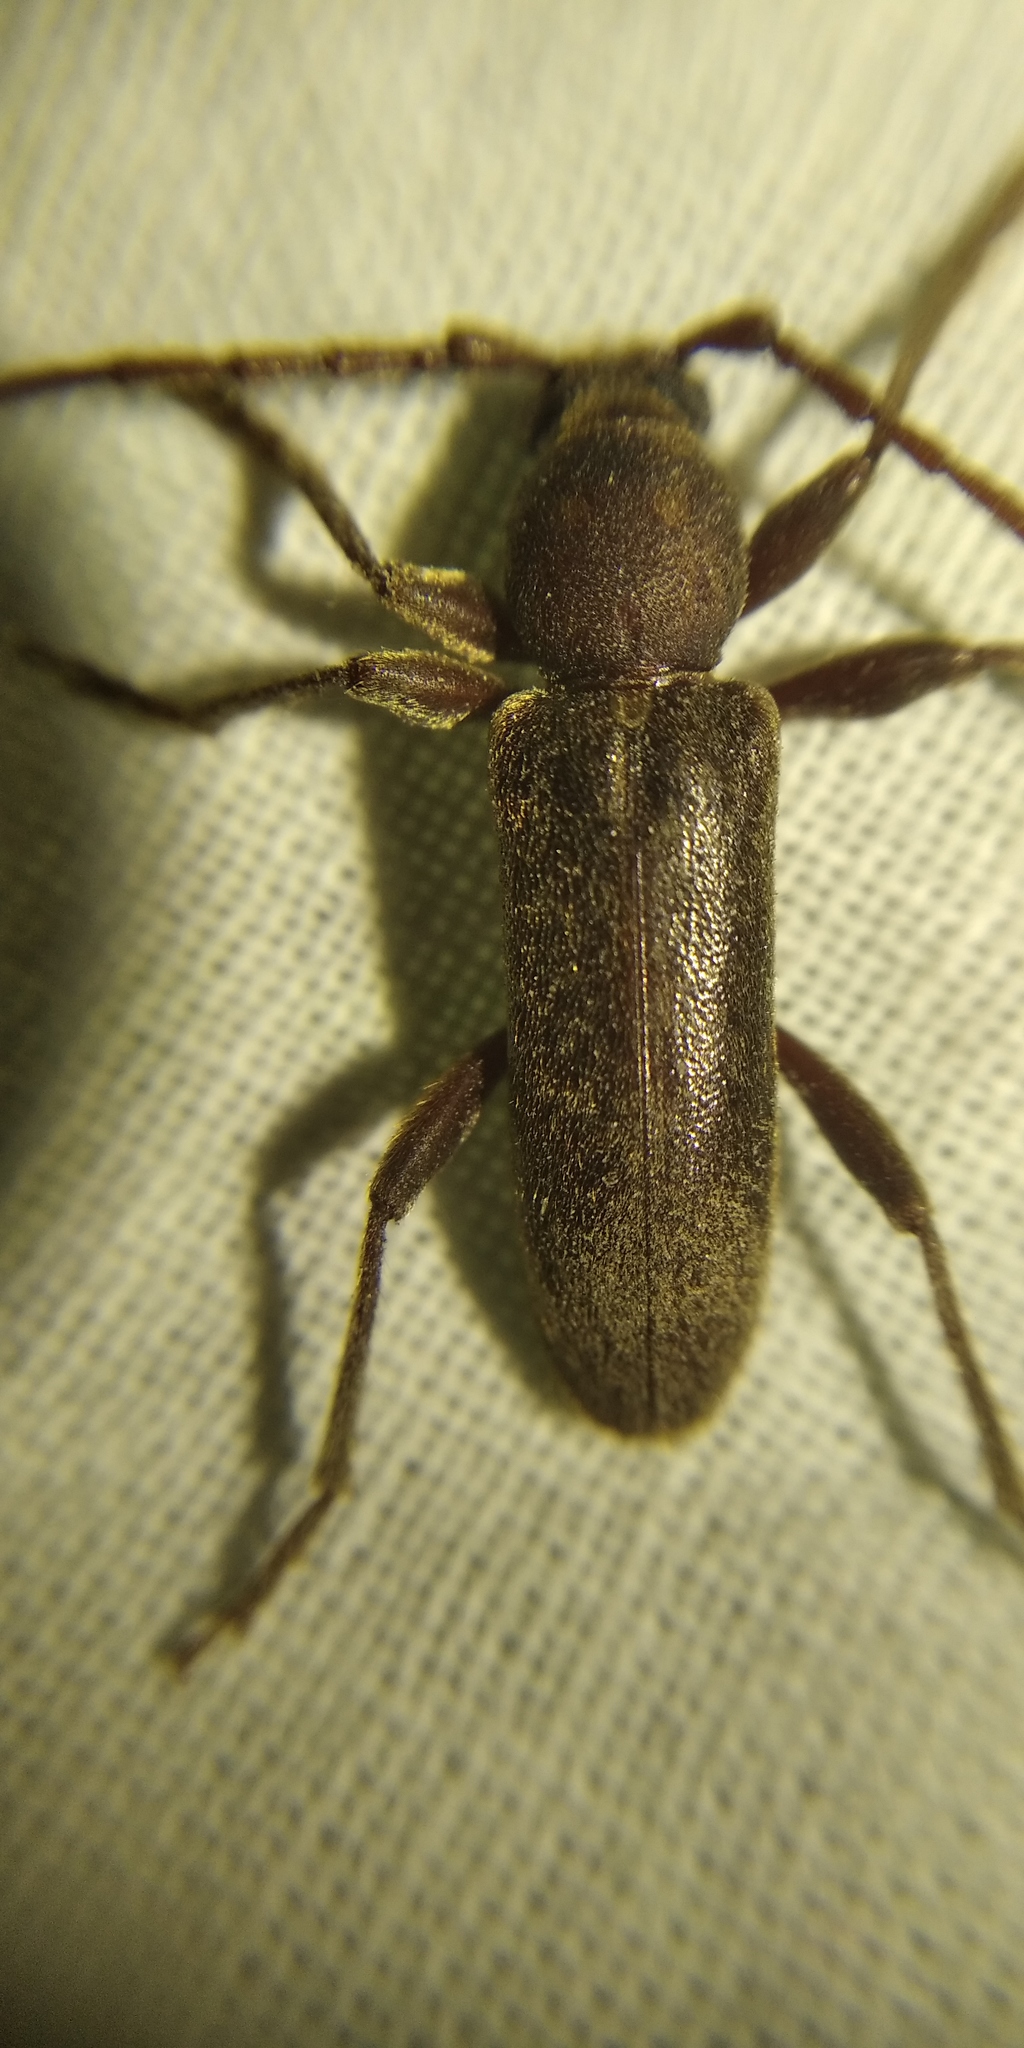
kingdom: Animalia
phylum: Arthropoda
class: Insecta
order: Coleoptera
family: Cerambycidae
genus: Trichoferus
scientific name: Trichoferus campestris
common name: Velvet long horned beetle
